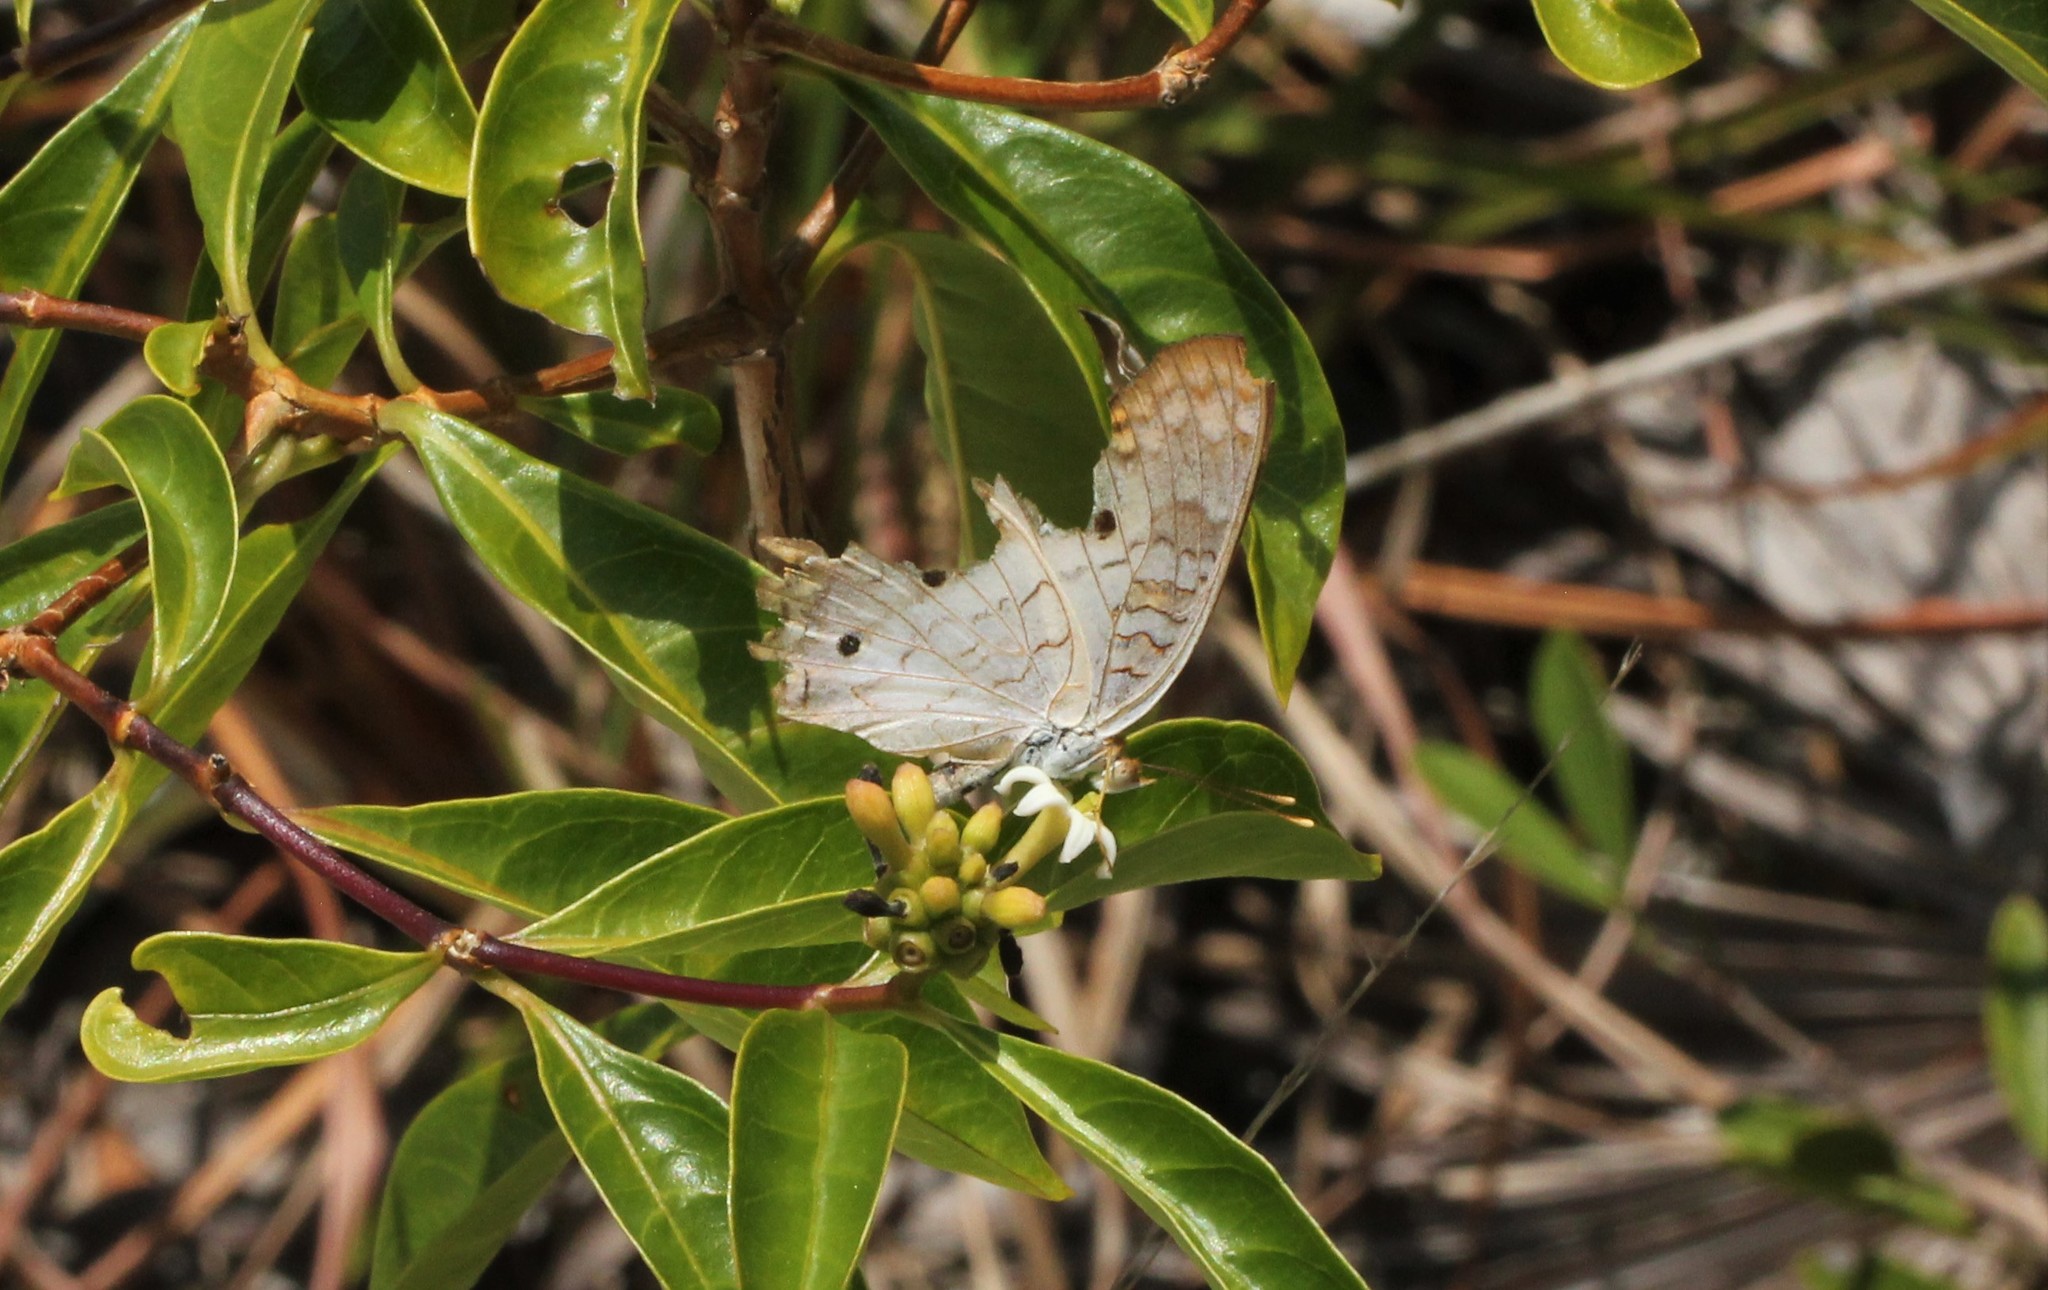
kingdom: Animalia
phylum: Arthropoda
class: Insecta
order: Lepidoptera
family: Nymphalidae
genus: Anartia
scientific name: Anartia jatrophae
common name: White peacock
